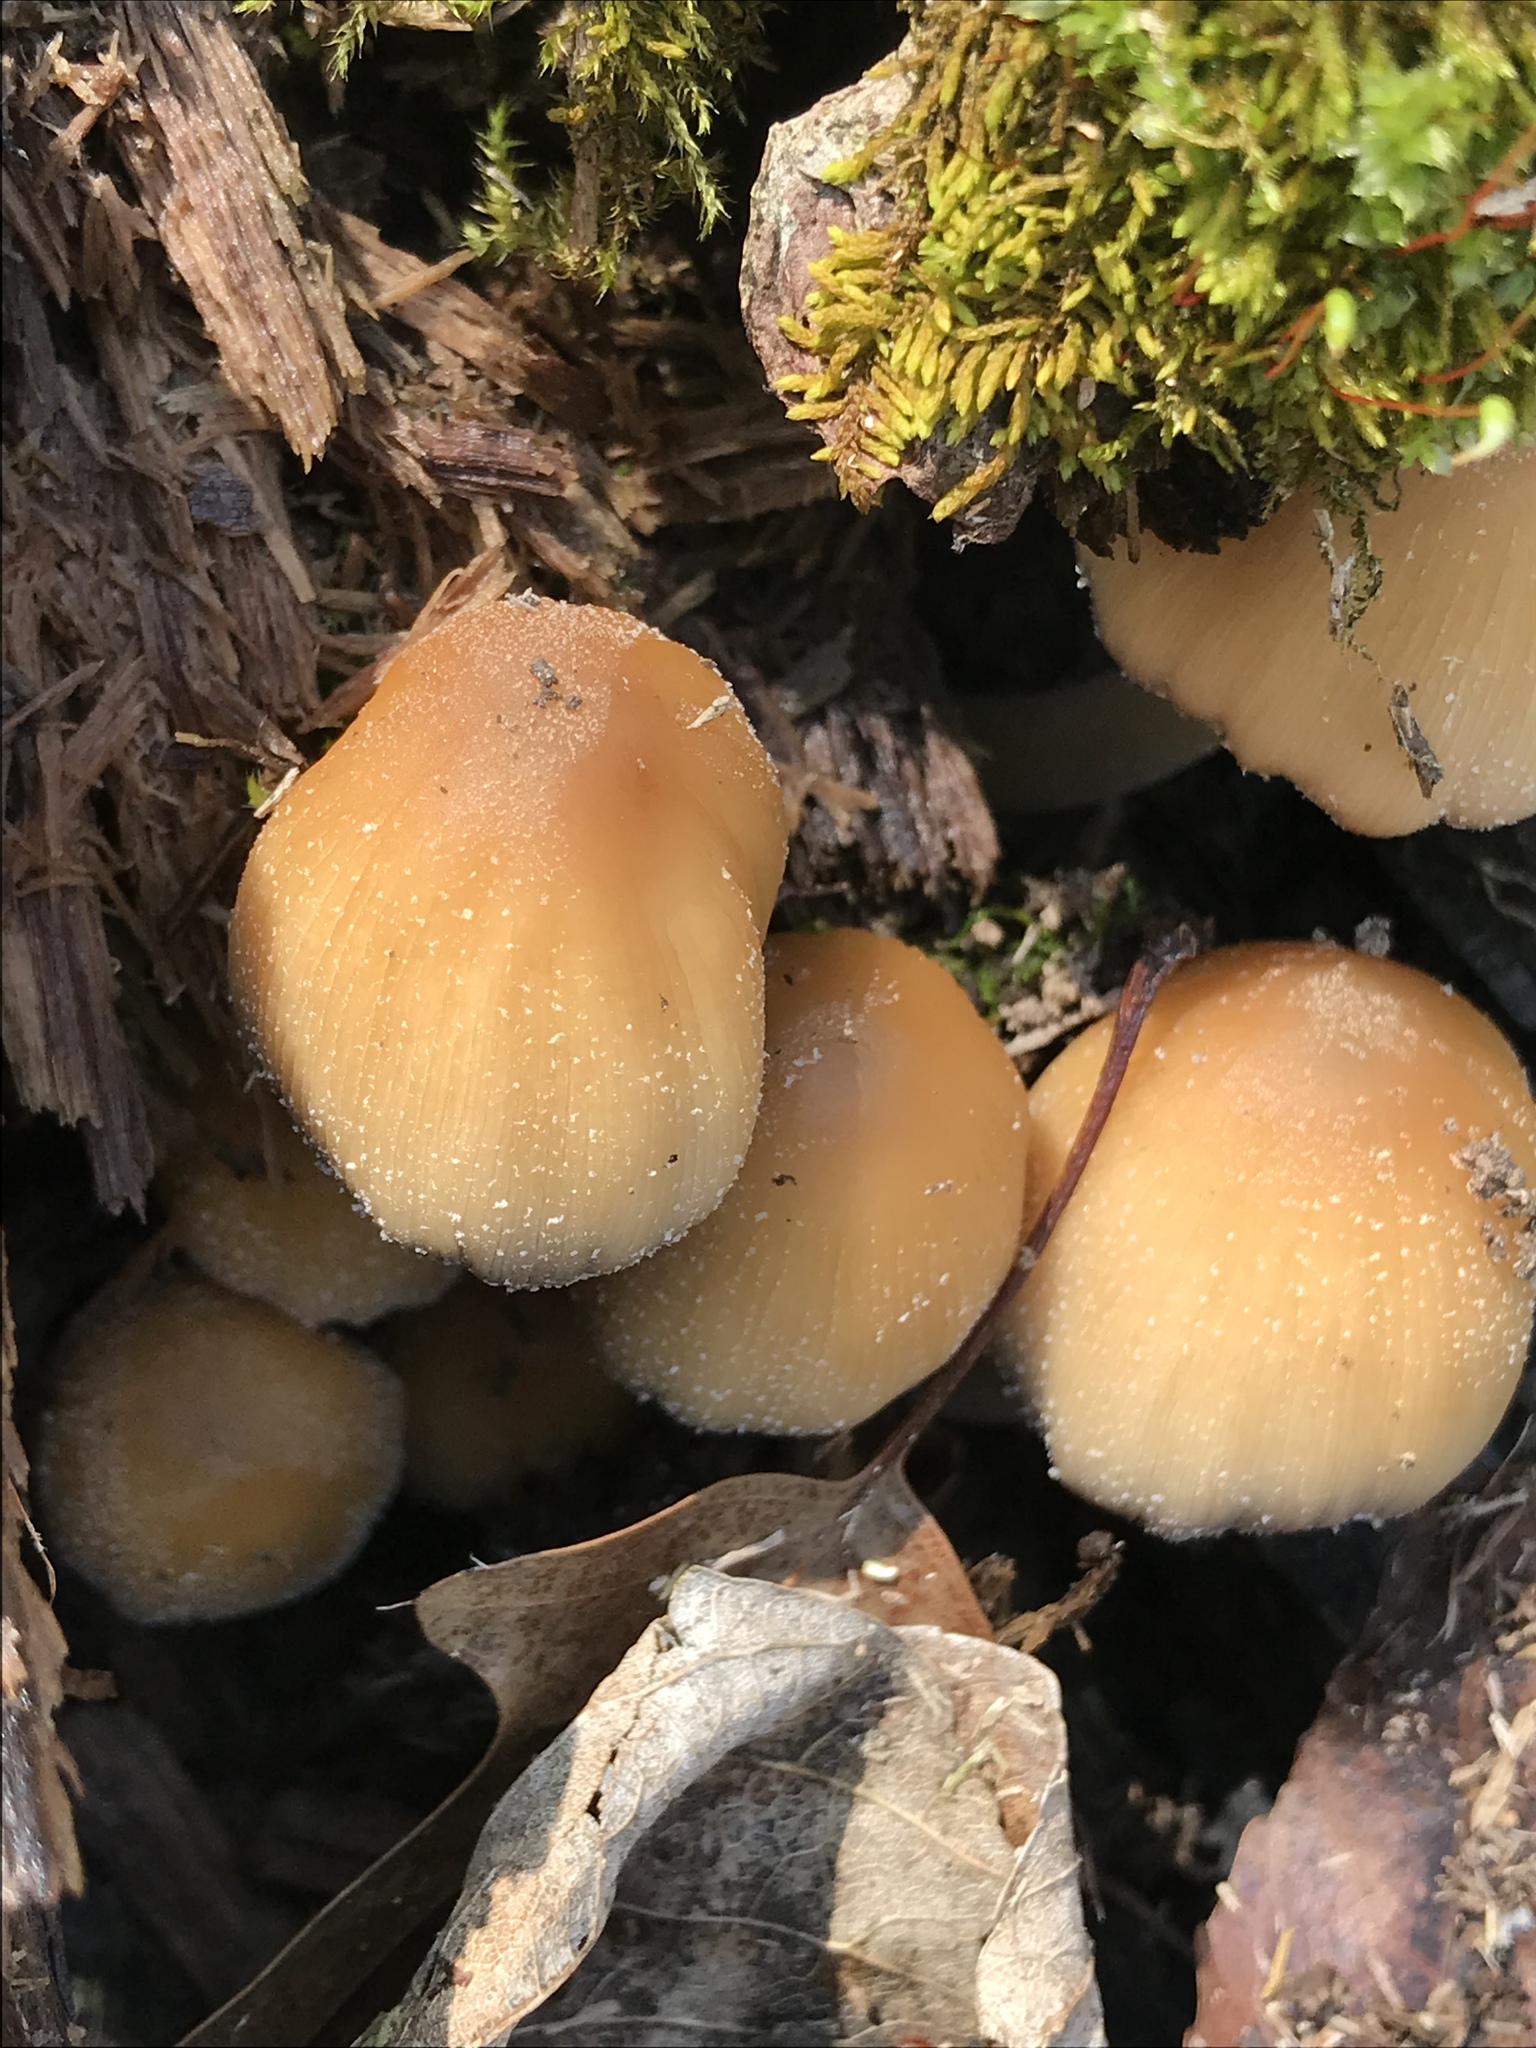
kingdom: Fungi
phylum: Basidiomycota
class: Agaricomycetes
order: Agaricales
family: Psathyrellaceae
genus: Coprinellus
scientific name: Coprinellus micaceus
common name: Glistening ink-cap
